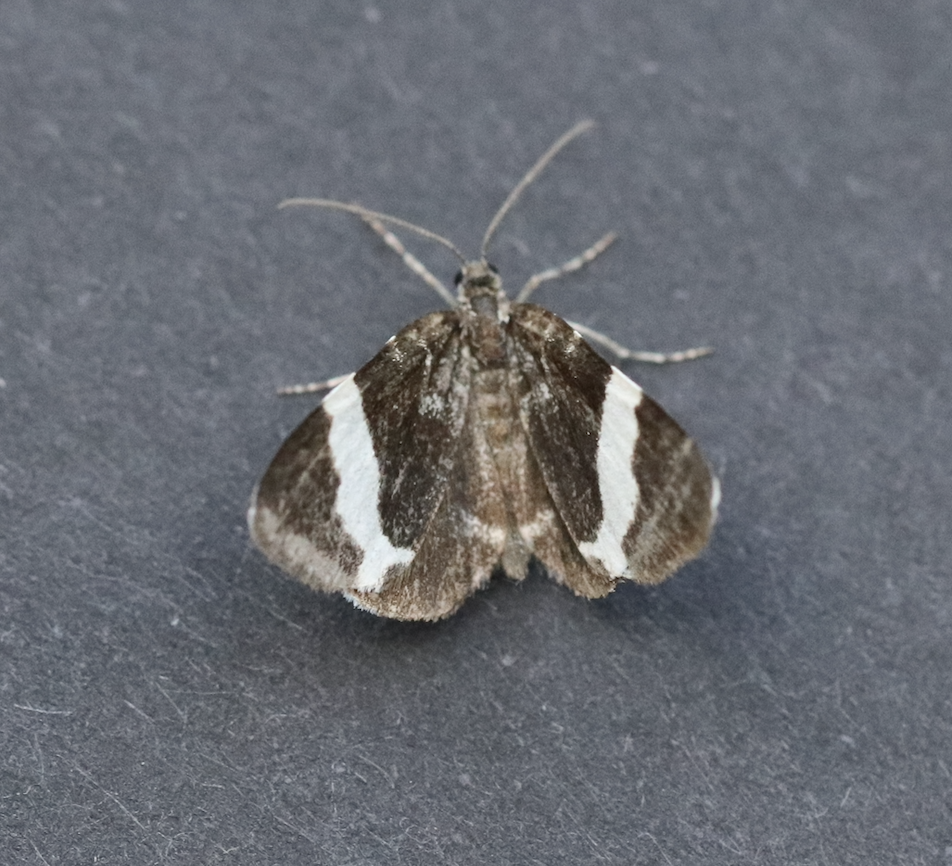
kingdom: Animalia
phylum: Arthropoda
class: Insecta
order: Lepidoptera
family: Geometridae
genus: Trichodezia
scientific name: Trichodezia albovittata
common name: White striped black
